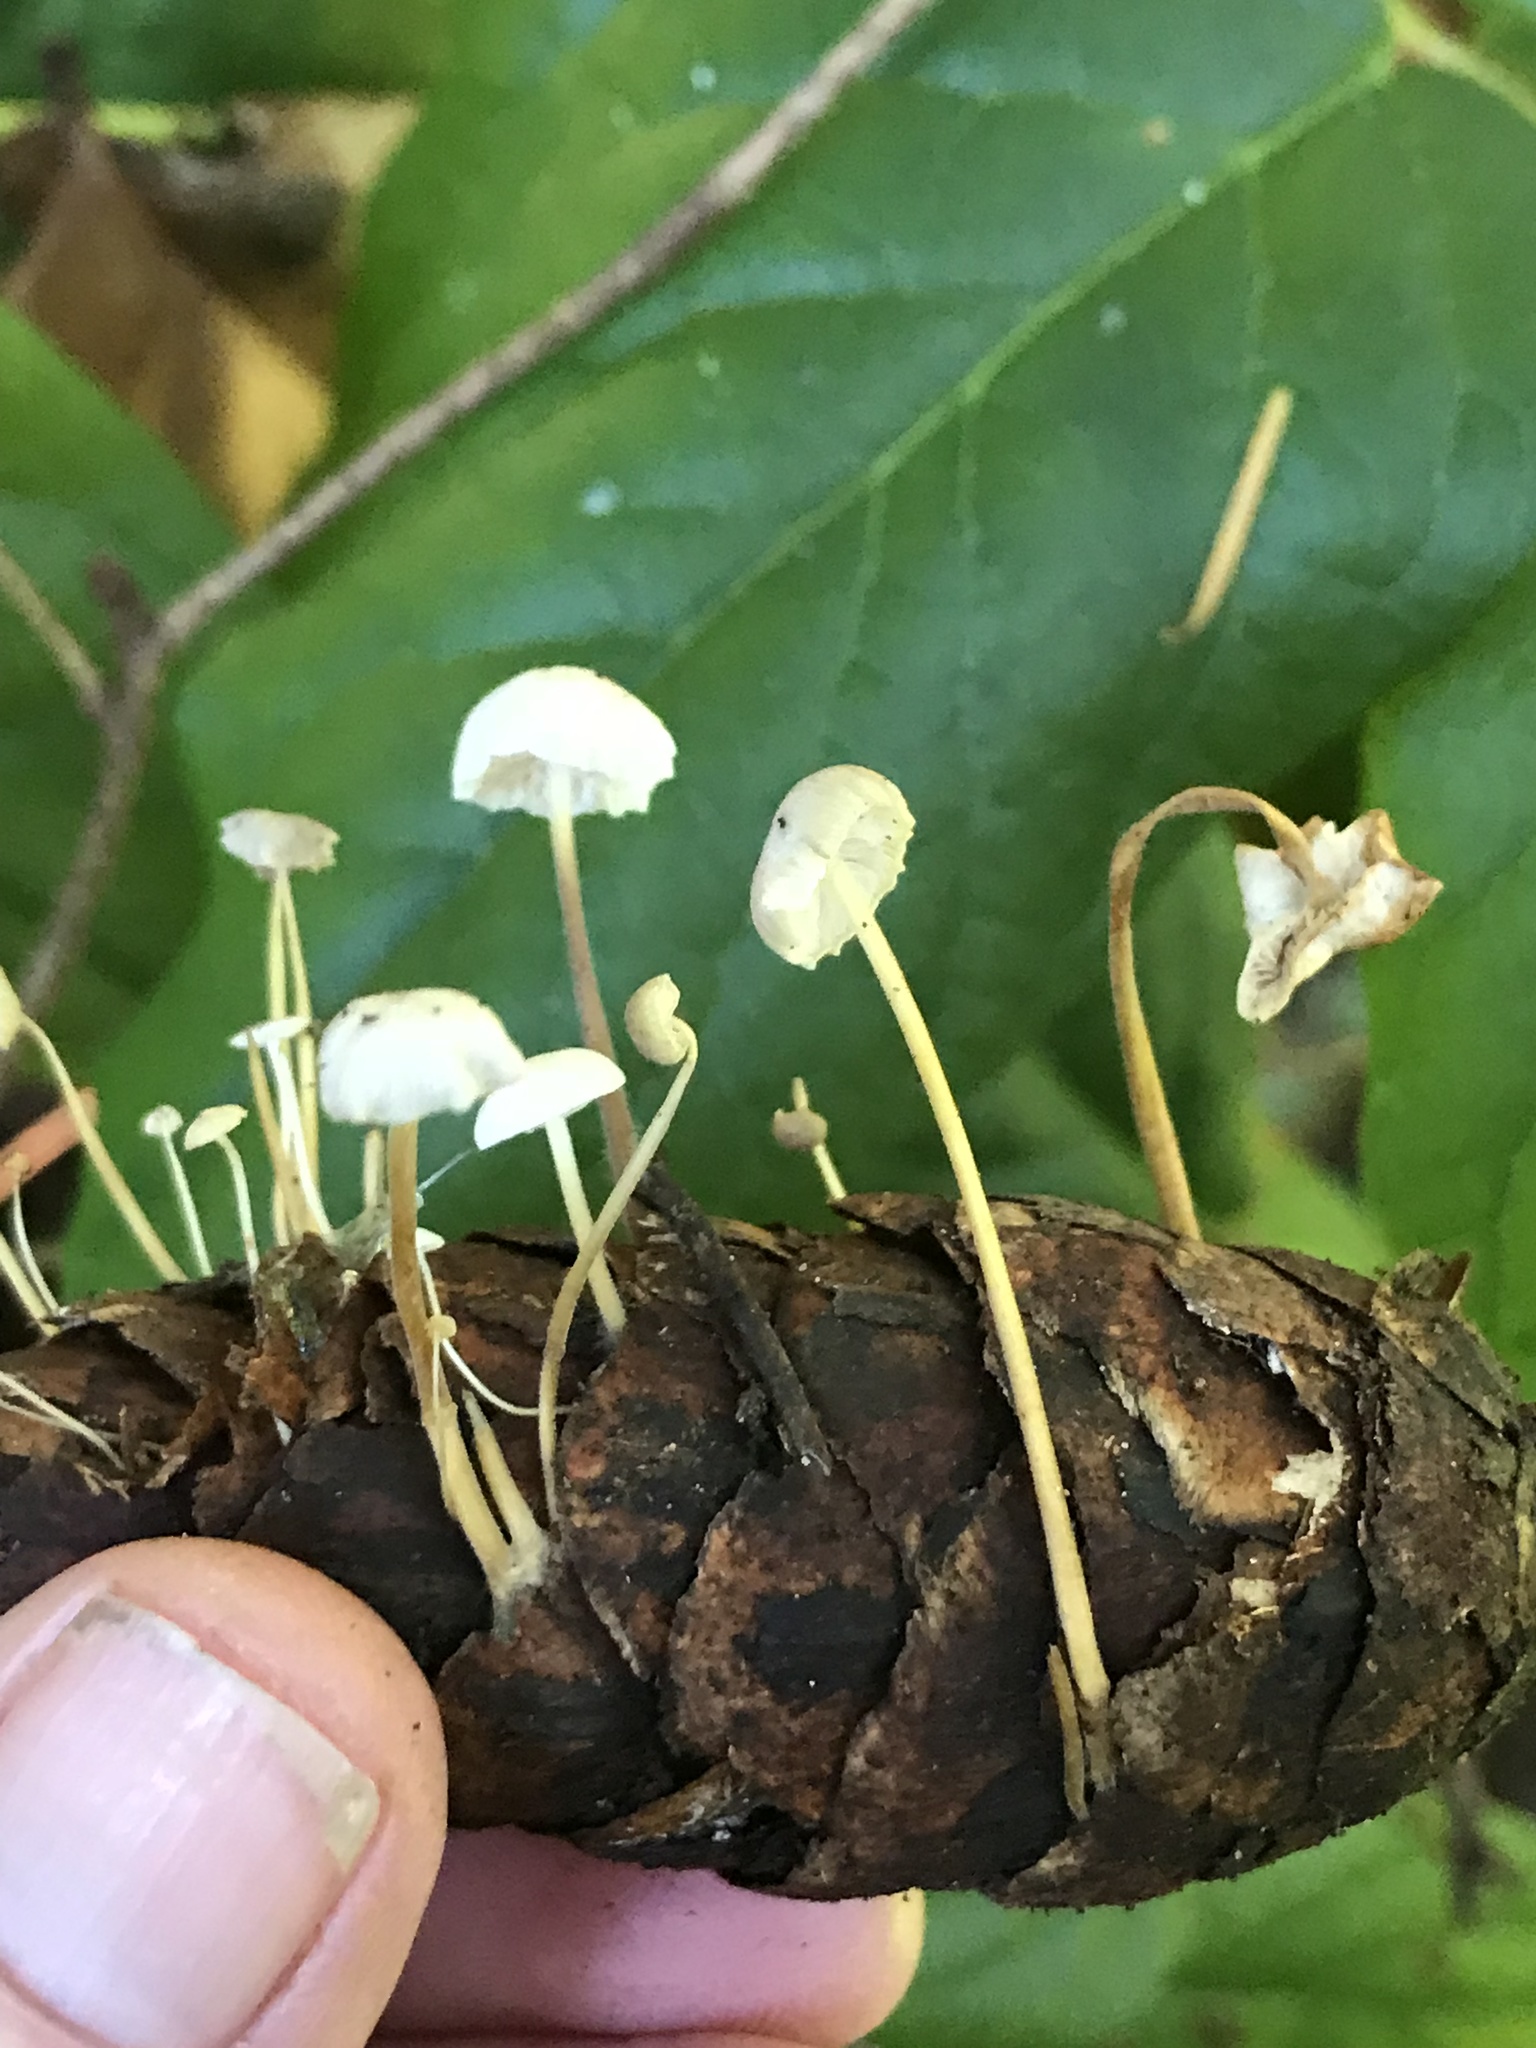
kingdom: Fungi
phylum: Basidiomycota
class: Agaricomycetes
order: Agaricales
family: Physalacriaceae
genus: Strobilurus
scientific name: Strobilurus trullisatus
